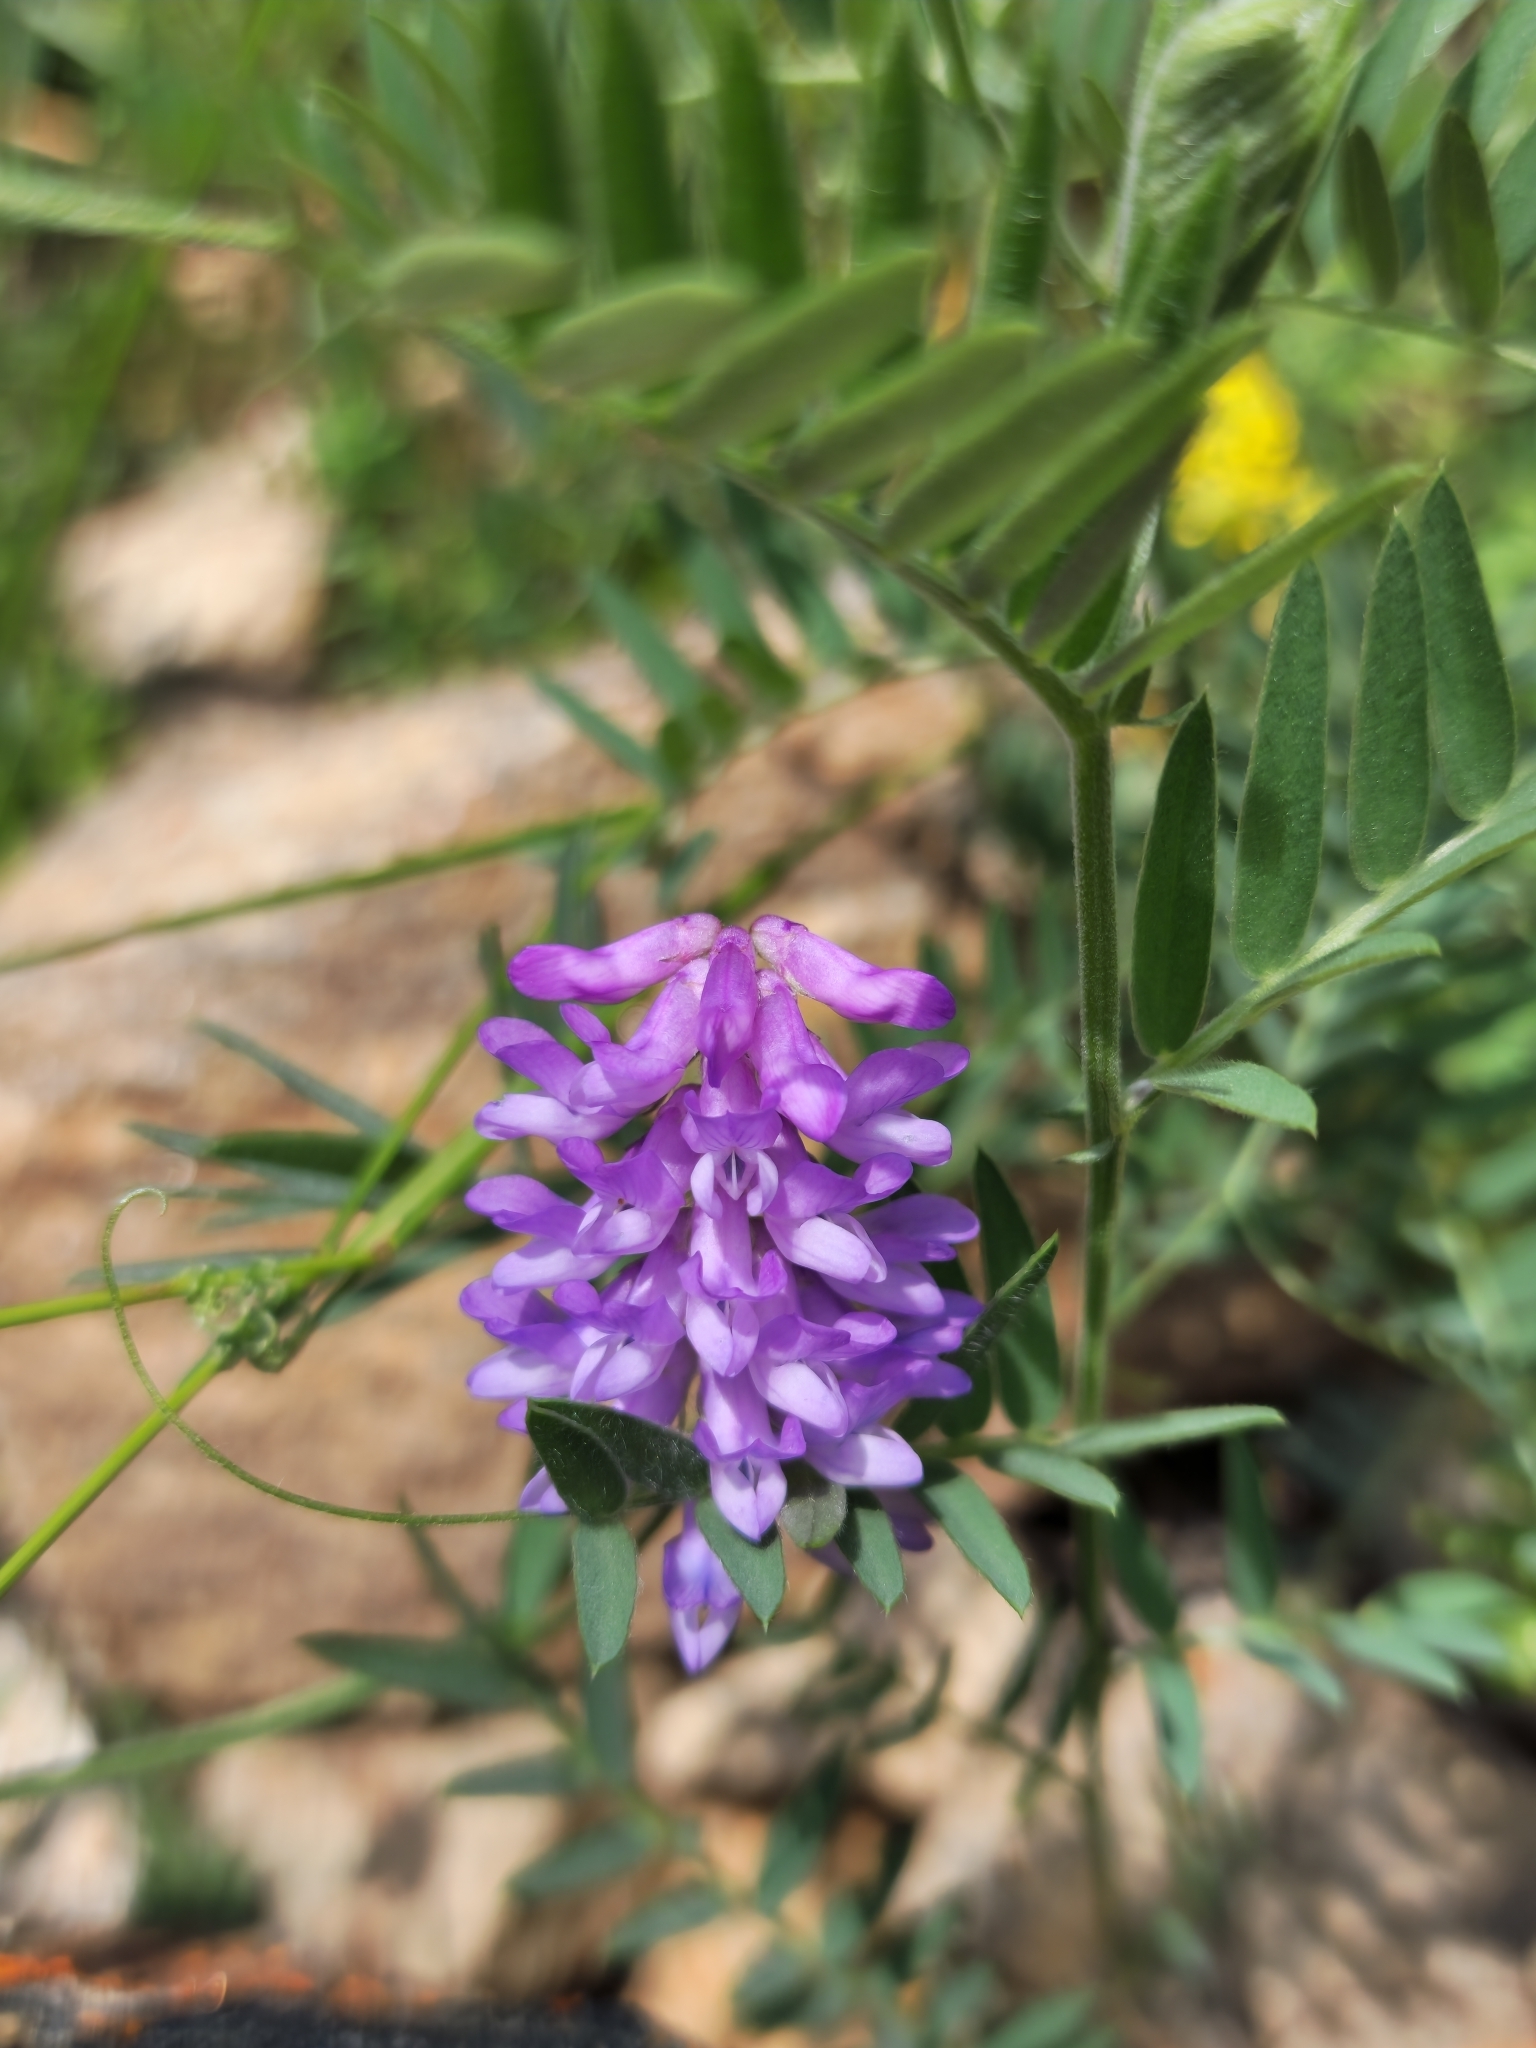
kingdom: Plantae
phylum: Tracheophyta
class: Magnoliopsida
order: Fabales
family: Fabaceae
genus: Vicia
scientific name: Vicia cracca
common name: Bird vetch
